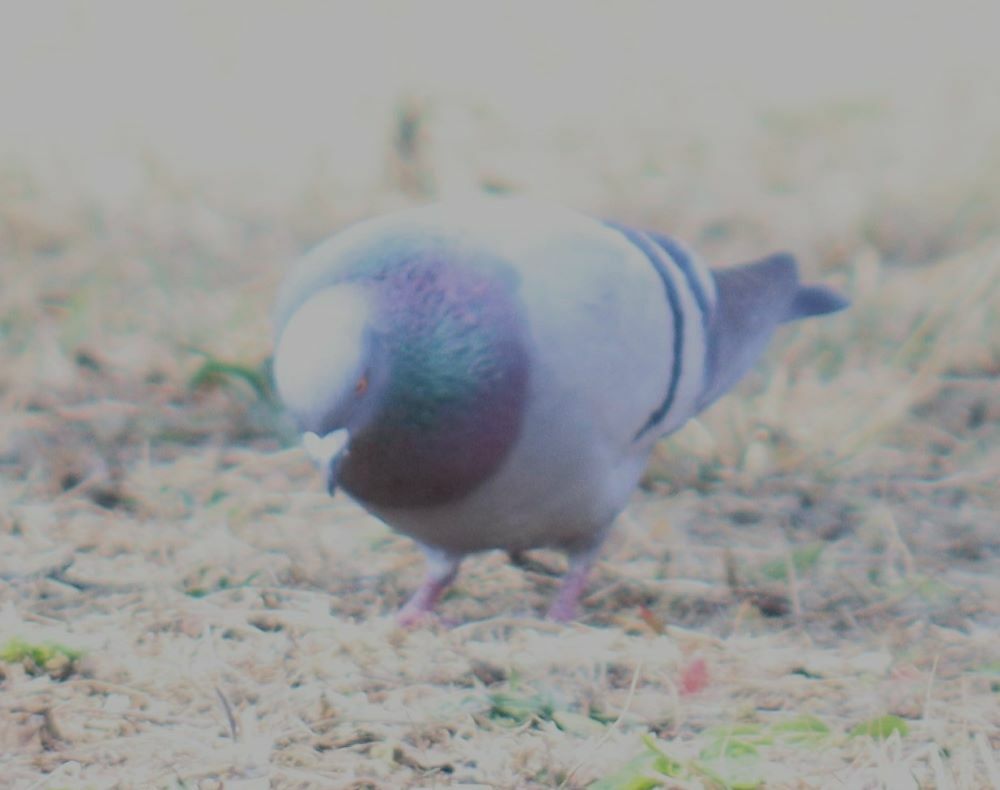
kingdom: Animalia
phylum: Chordata
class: Aves
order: Columbiformes
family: Columbidae
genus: Columba
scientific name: Columba livia
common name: Rock pigeon
